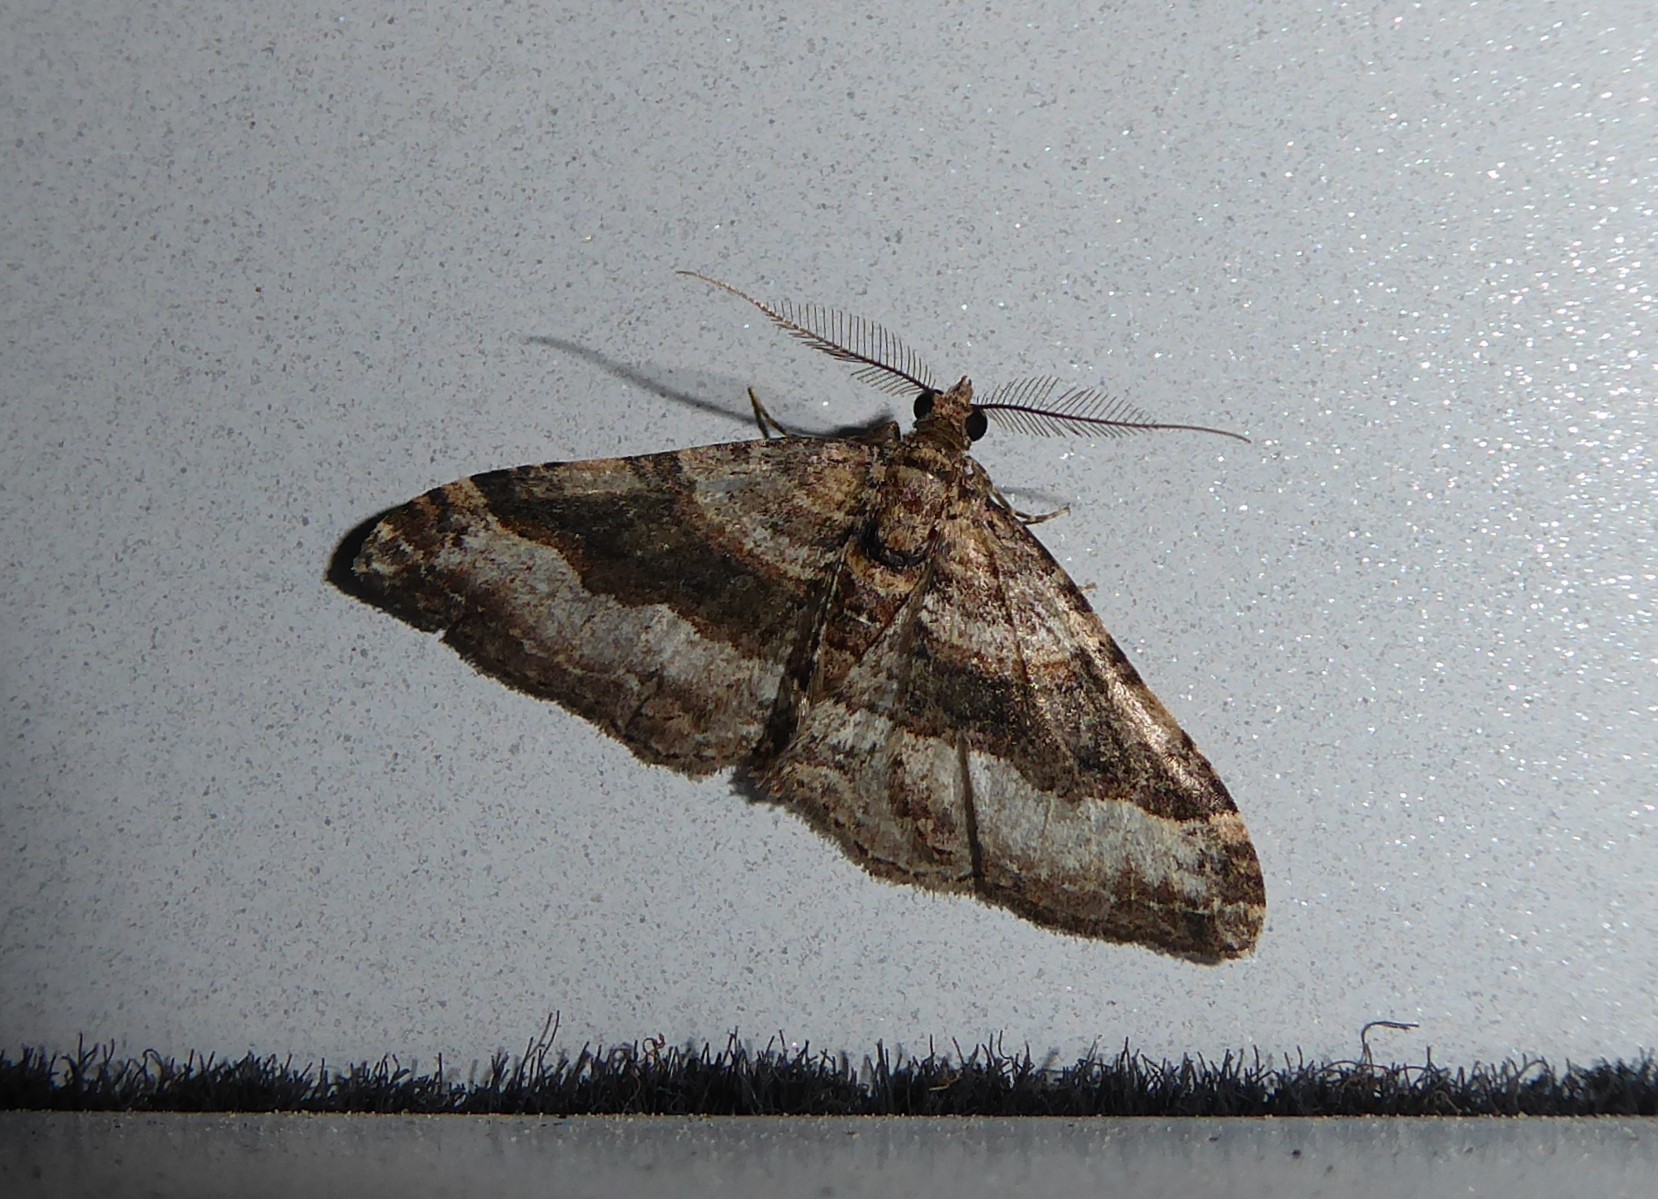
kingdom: Animalia
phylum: Arthropoda
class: Insecta
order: Lepidoptera
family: Geometridae
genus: Epyaxa
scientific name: Epyaxa lucidata
